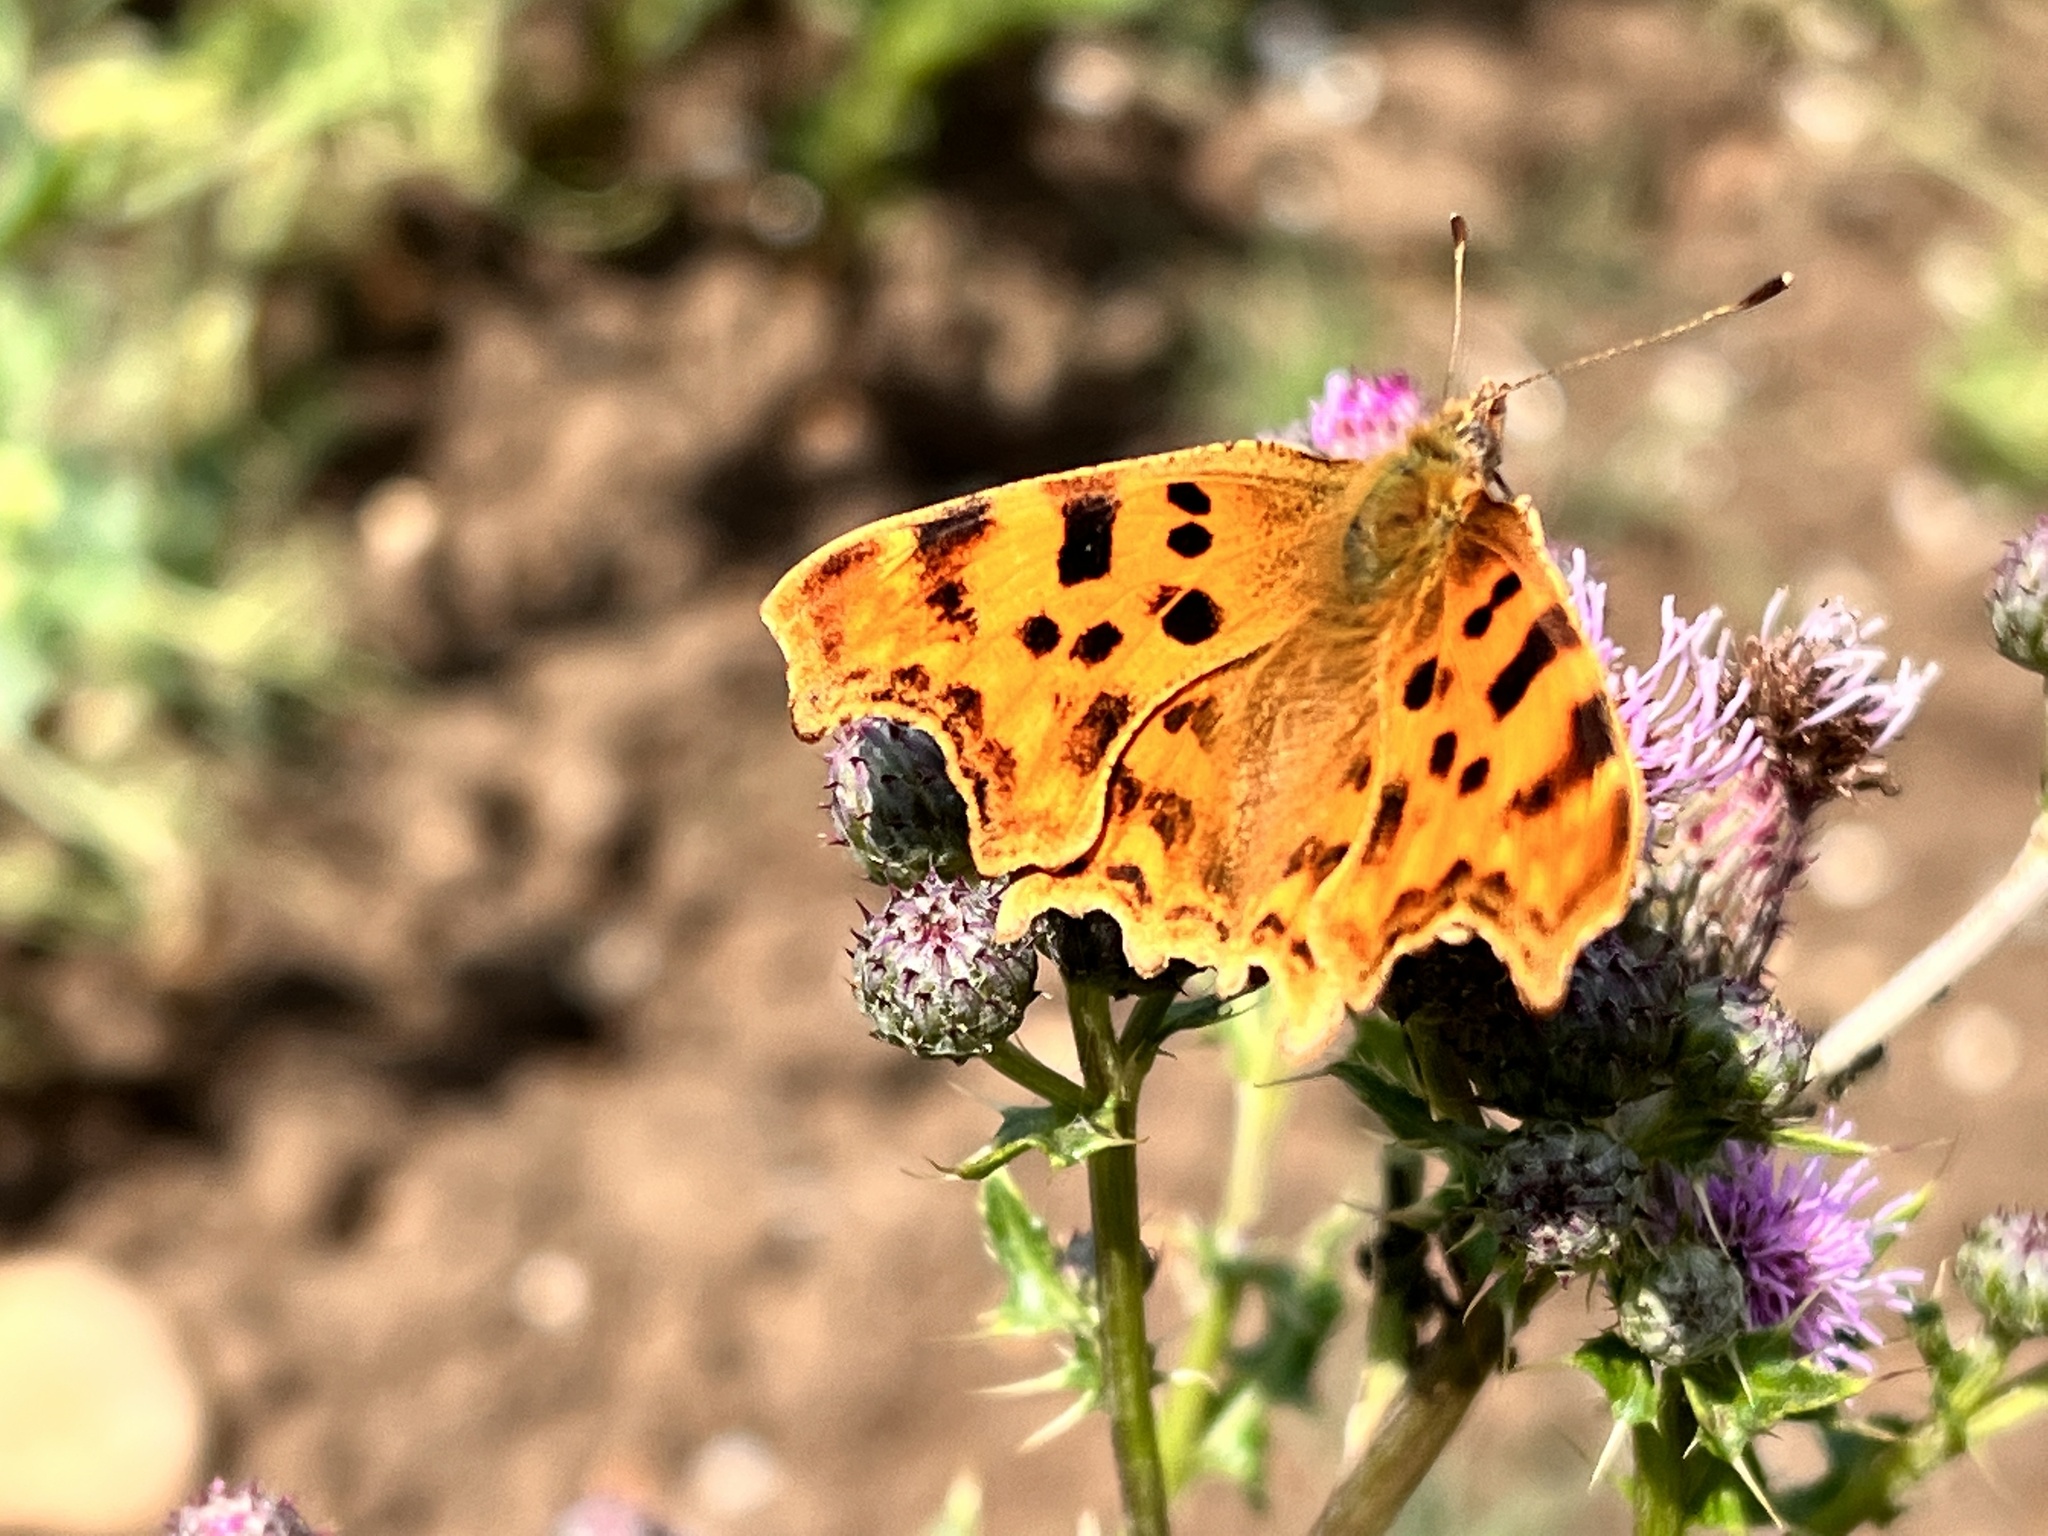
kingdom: Animalia
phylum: Arthropoda
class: Insecta
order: Lepidoptera
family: Nymphalidae
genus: Polygonia
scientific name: Polygonia c-album
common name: Comma
